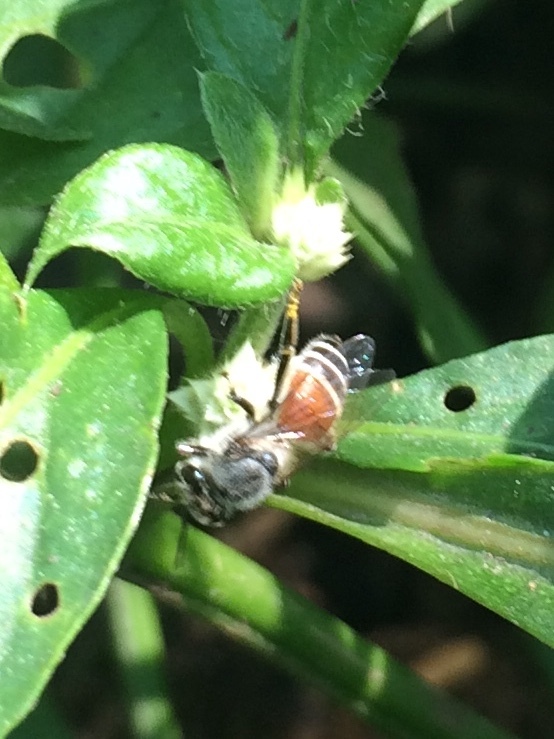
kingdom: Animalia
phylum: Arthropoda
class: Insecta
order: Hymenoptera
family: Apidae
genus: Apis
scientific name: Apis florea
